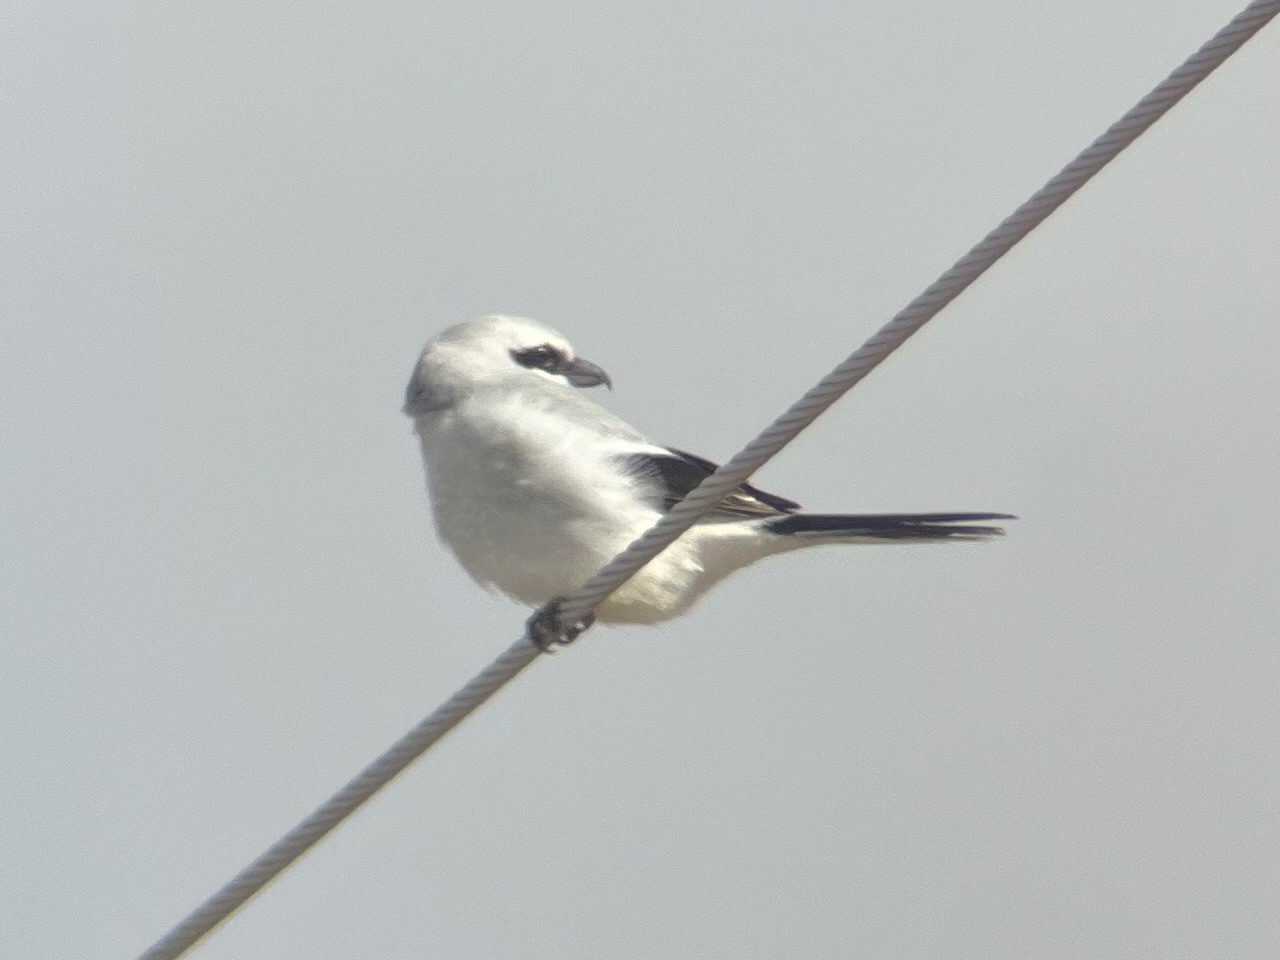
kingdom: Animalia
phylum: Chordata
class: Aves
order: Passeriformes
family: Laniidae
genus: Lanius
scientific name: Lanius borealis
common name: Northern shrike
